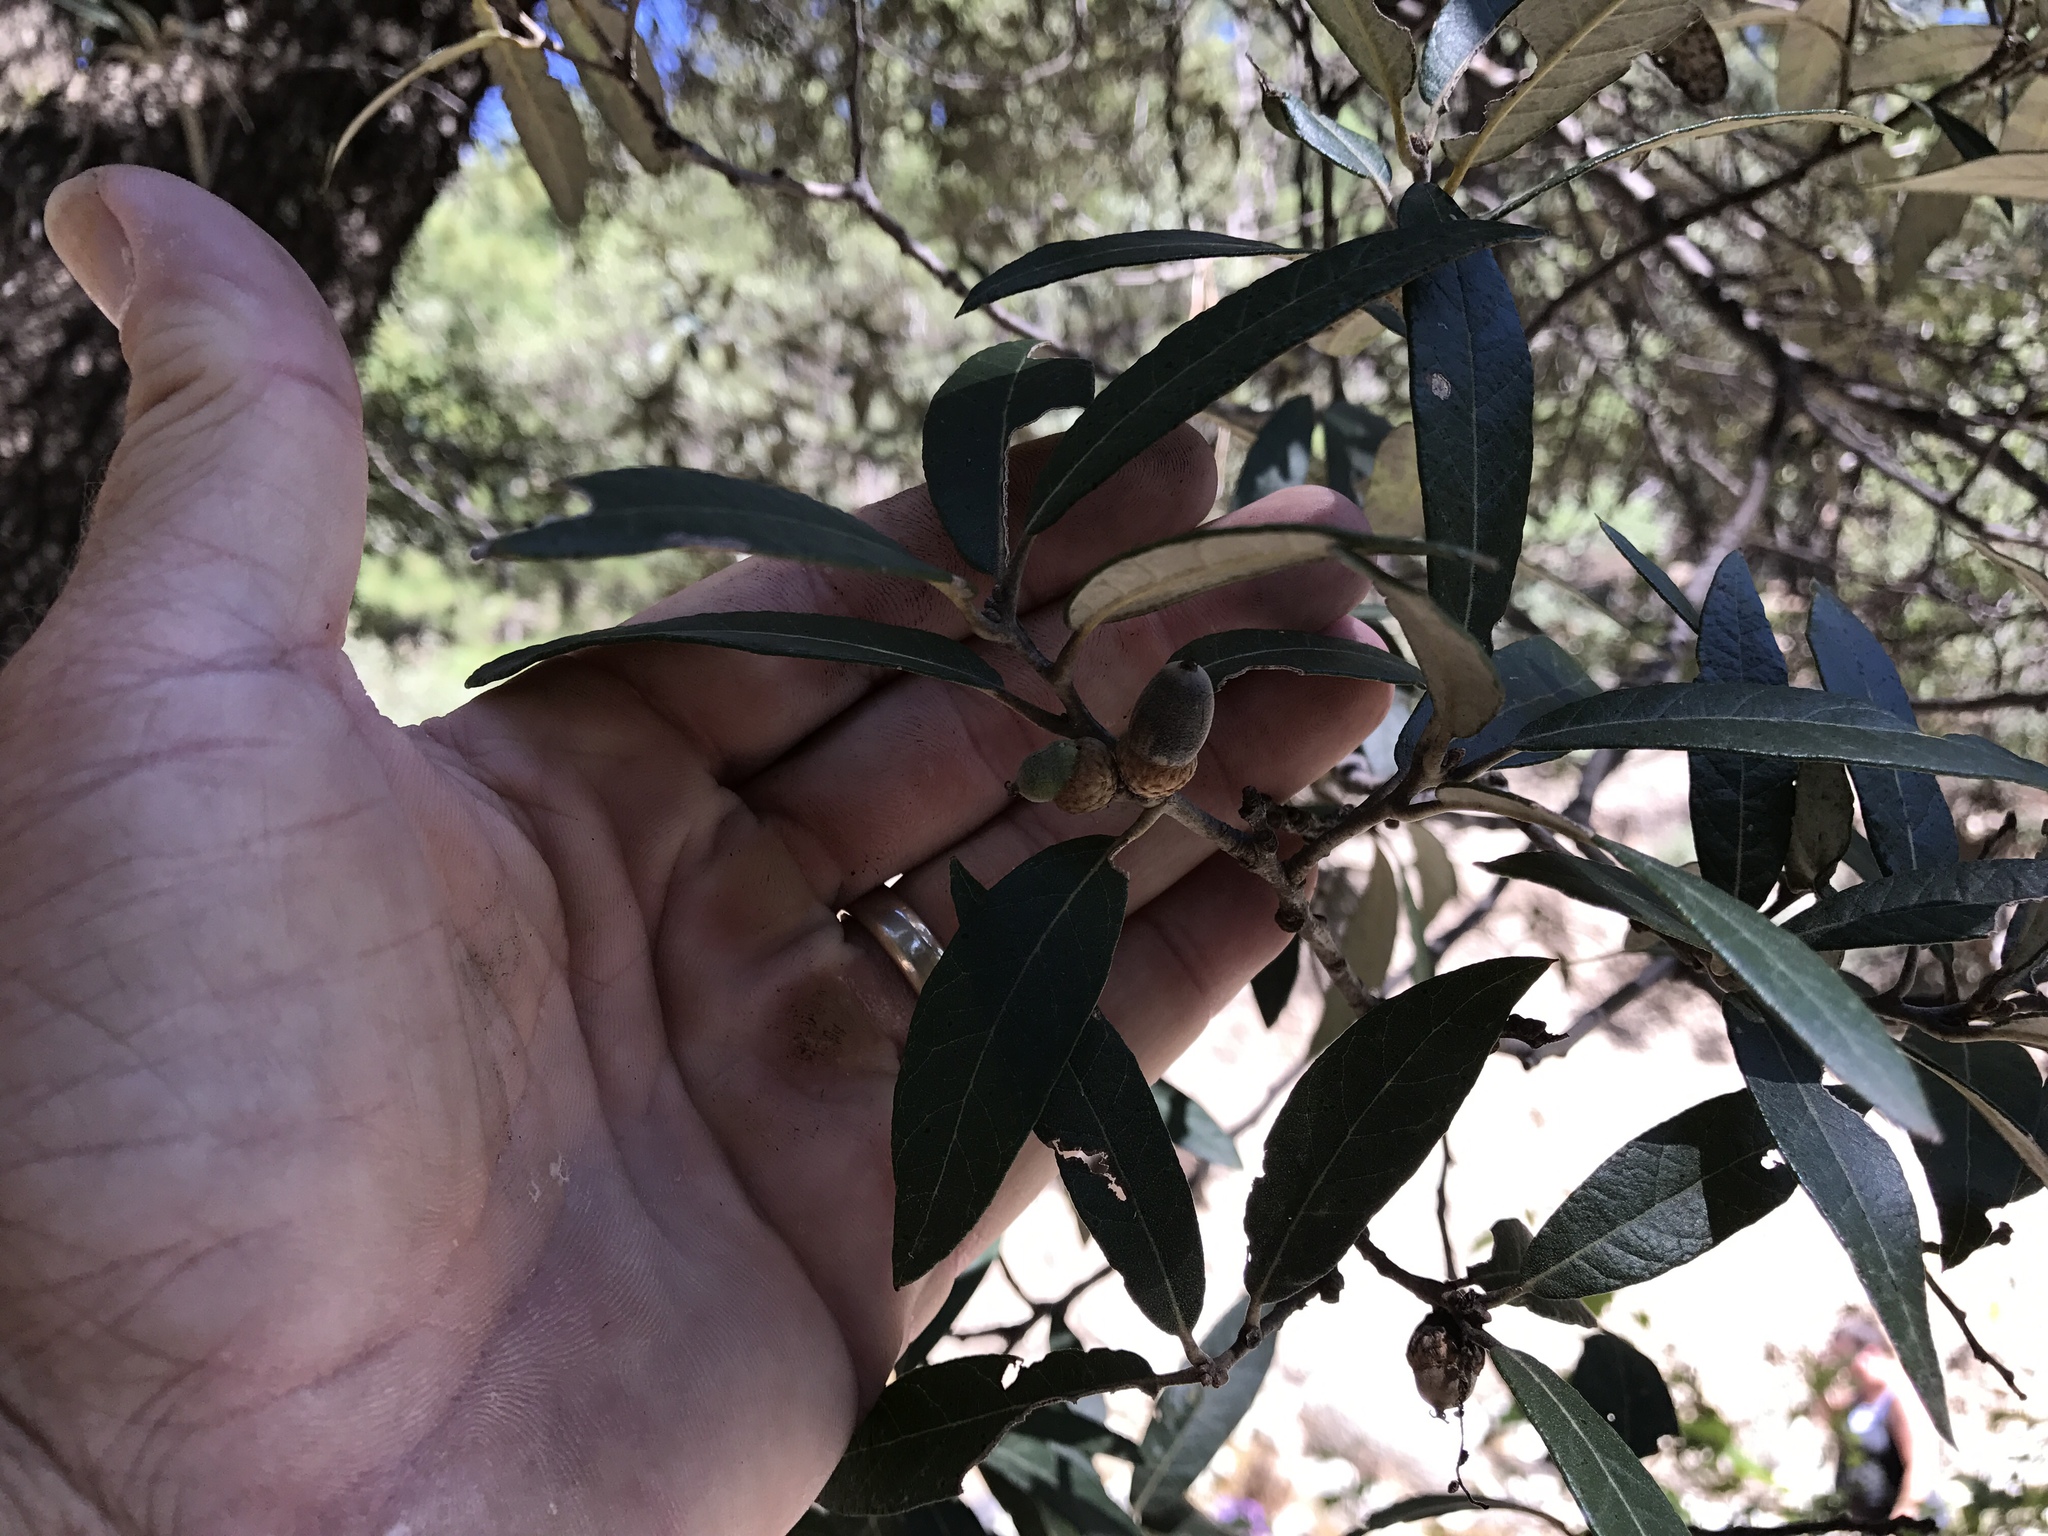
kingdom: Plantae
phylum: Tracheophyta
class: Magnoliopsida
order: Fagales
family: Fagaceae
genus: Quercus
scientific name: Quercus hypoleucoides
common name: Silverleaf oak
